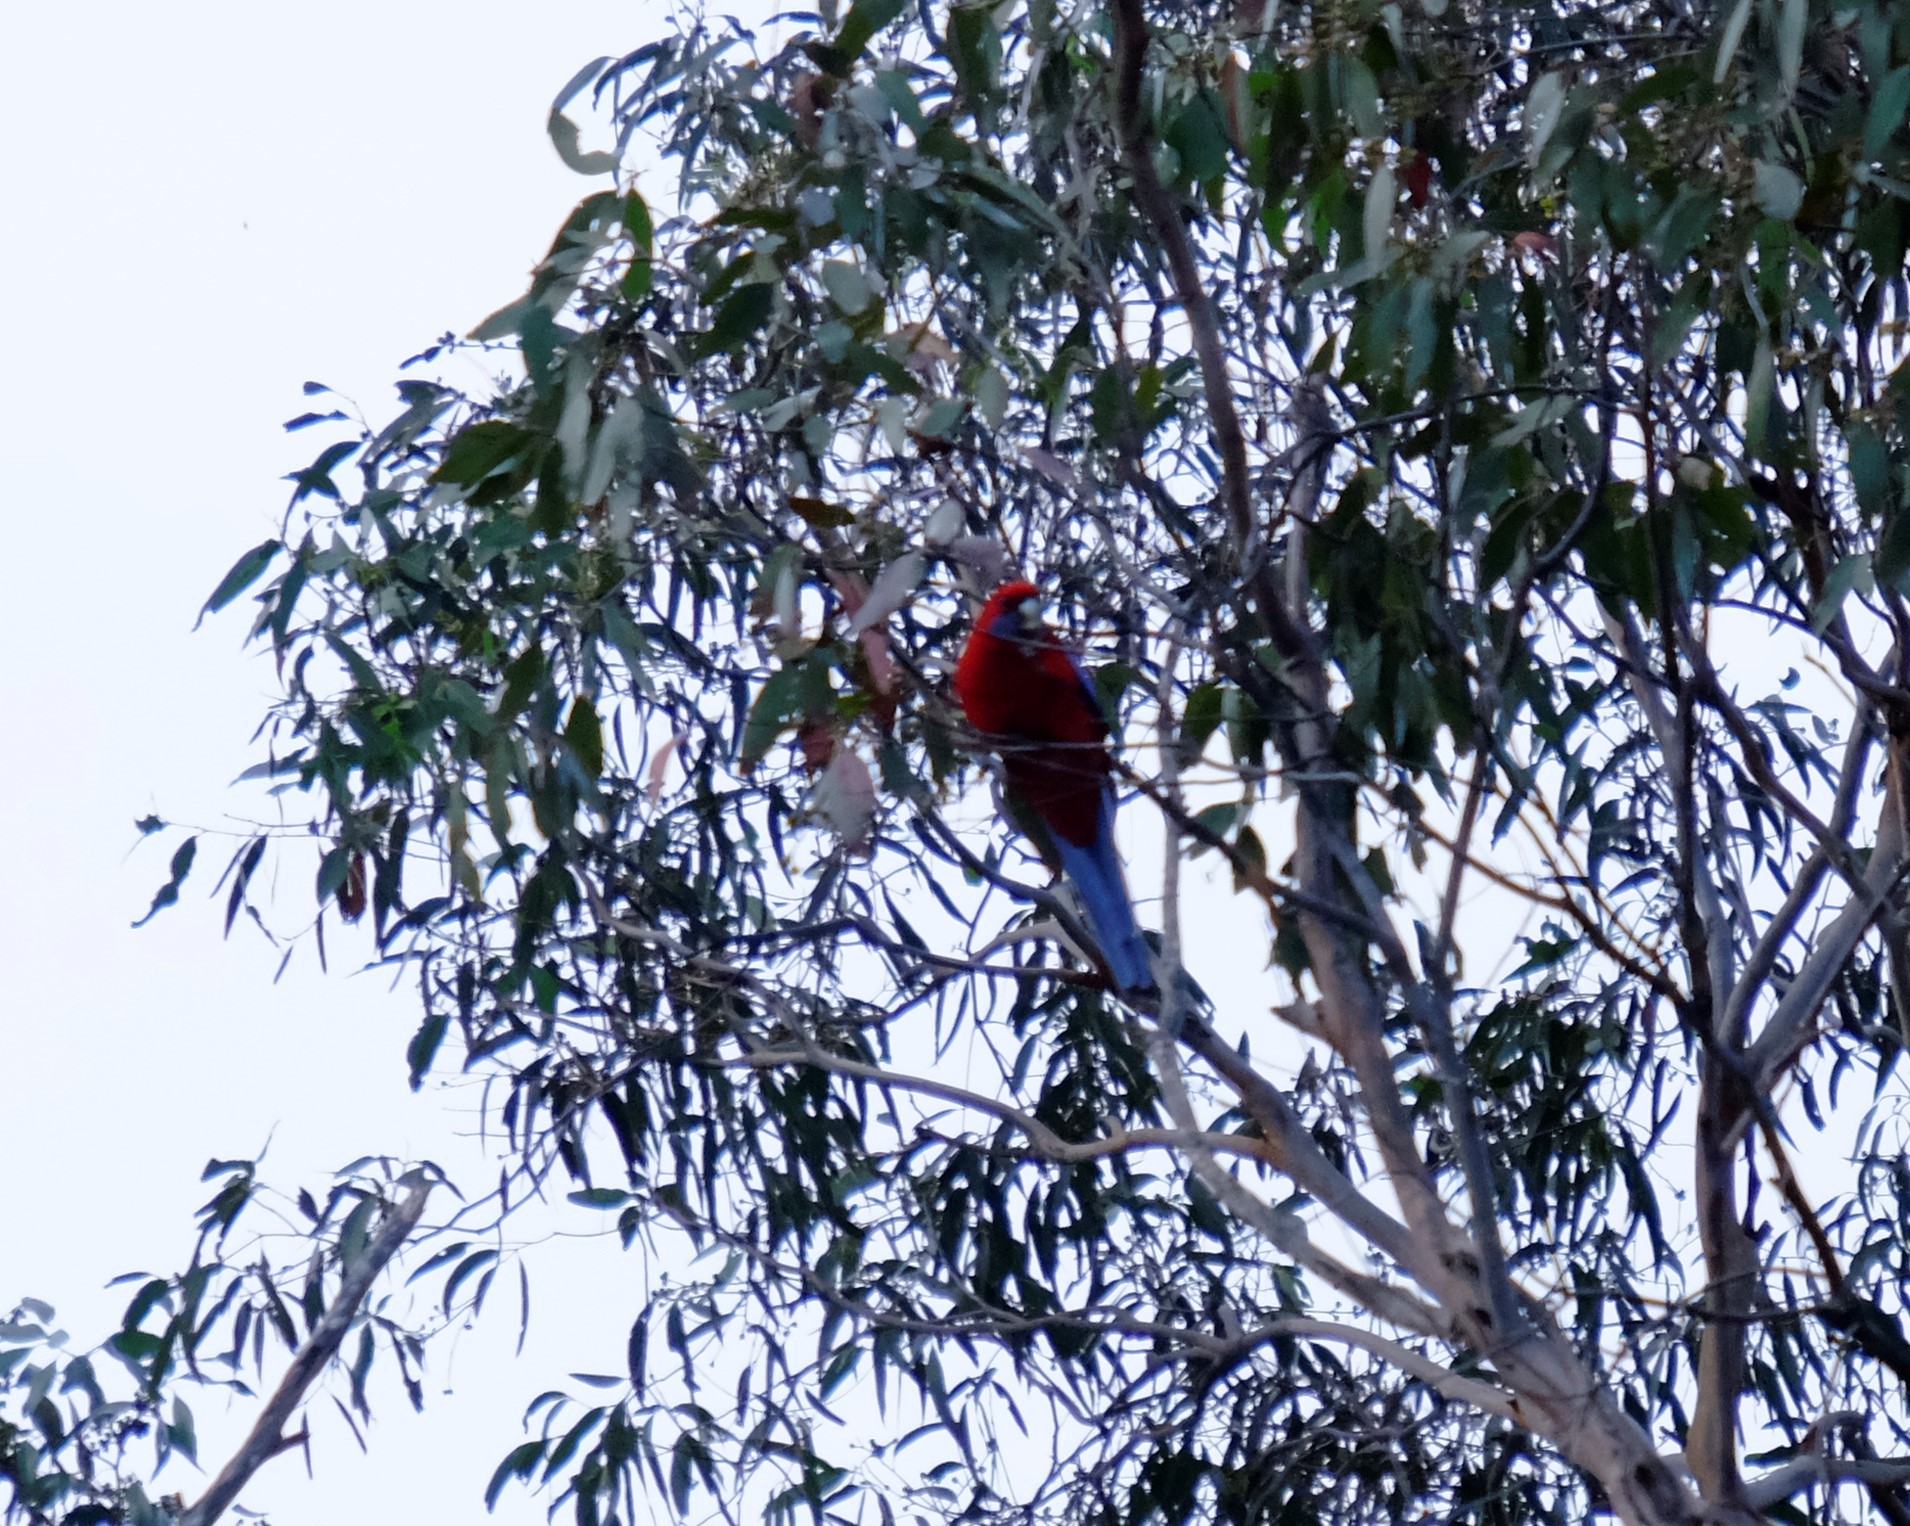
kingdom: Animalia
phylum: Chordata
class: Aves
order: Psittaciformes
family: Psittacidae
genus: Platycercus
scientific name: Platycercus elegans
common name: Crimson rosella
